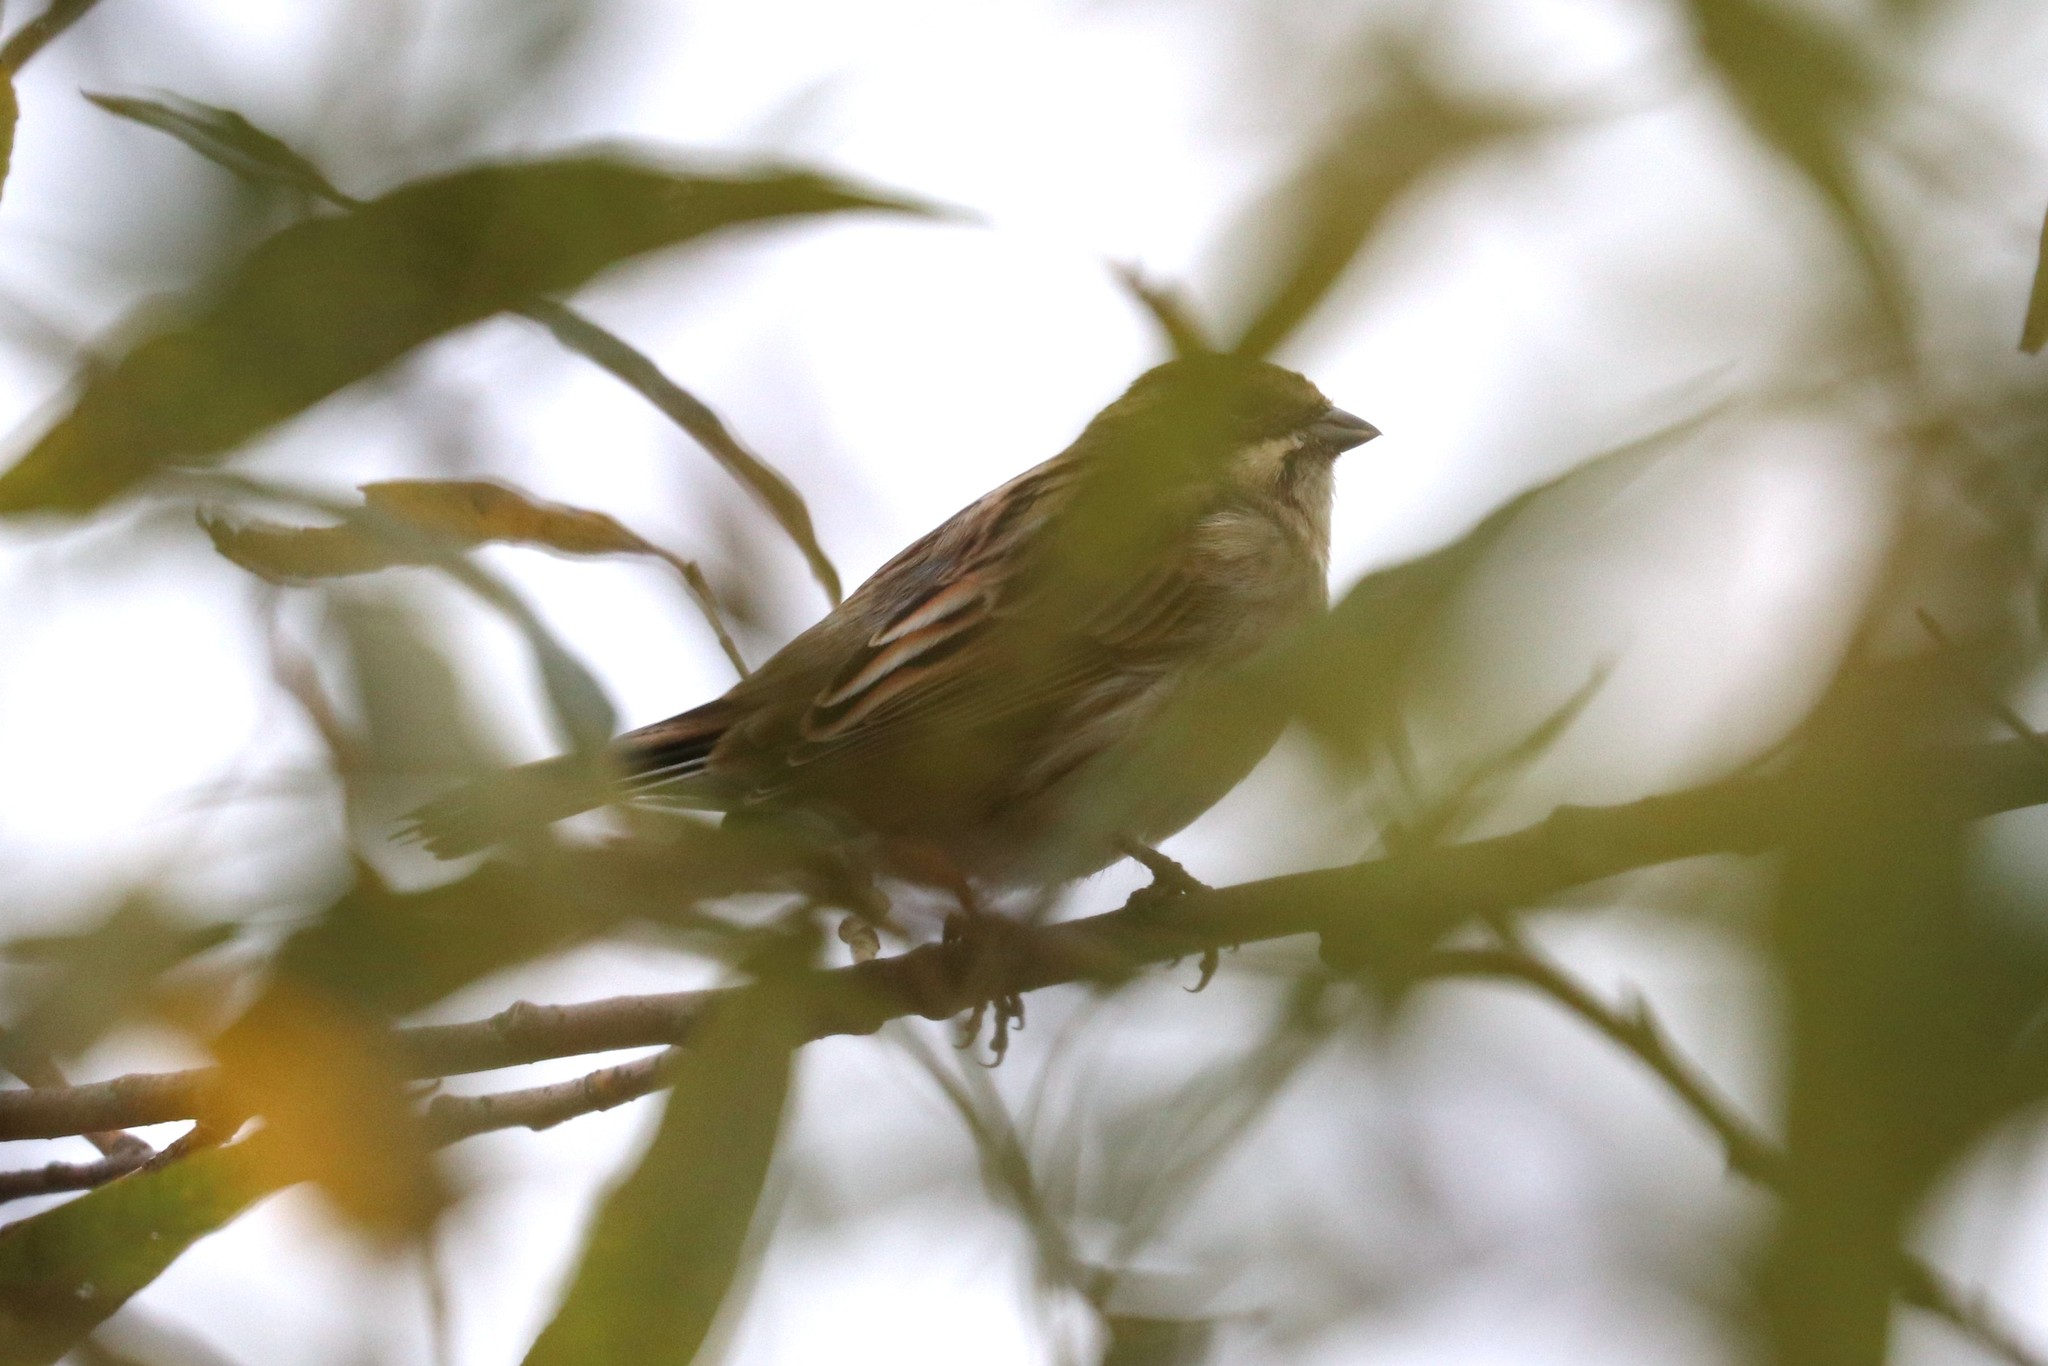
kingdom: Animalia
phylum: Chordata
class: Aves
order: Passeriformes
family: Emberizidae
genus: Emberiza
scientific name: Emberiza schoeniclus
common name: Reed bunting
